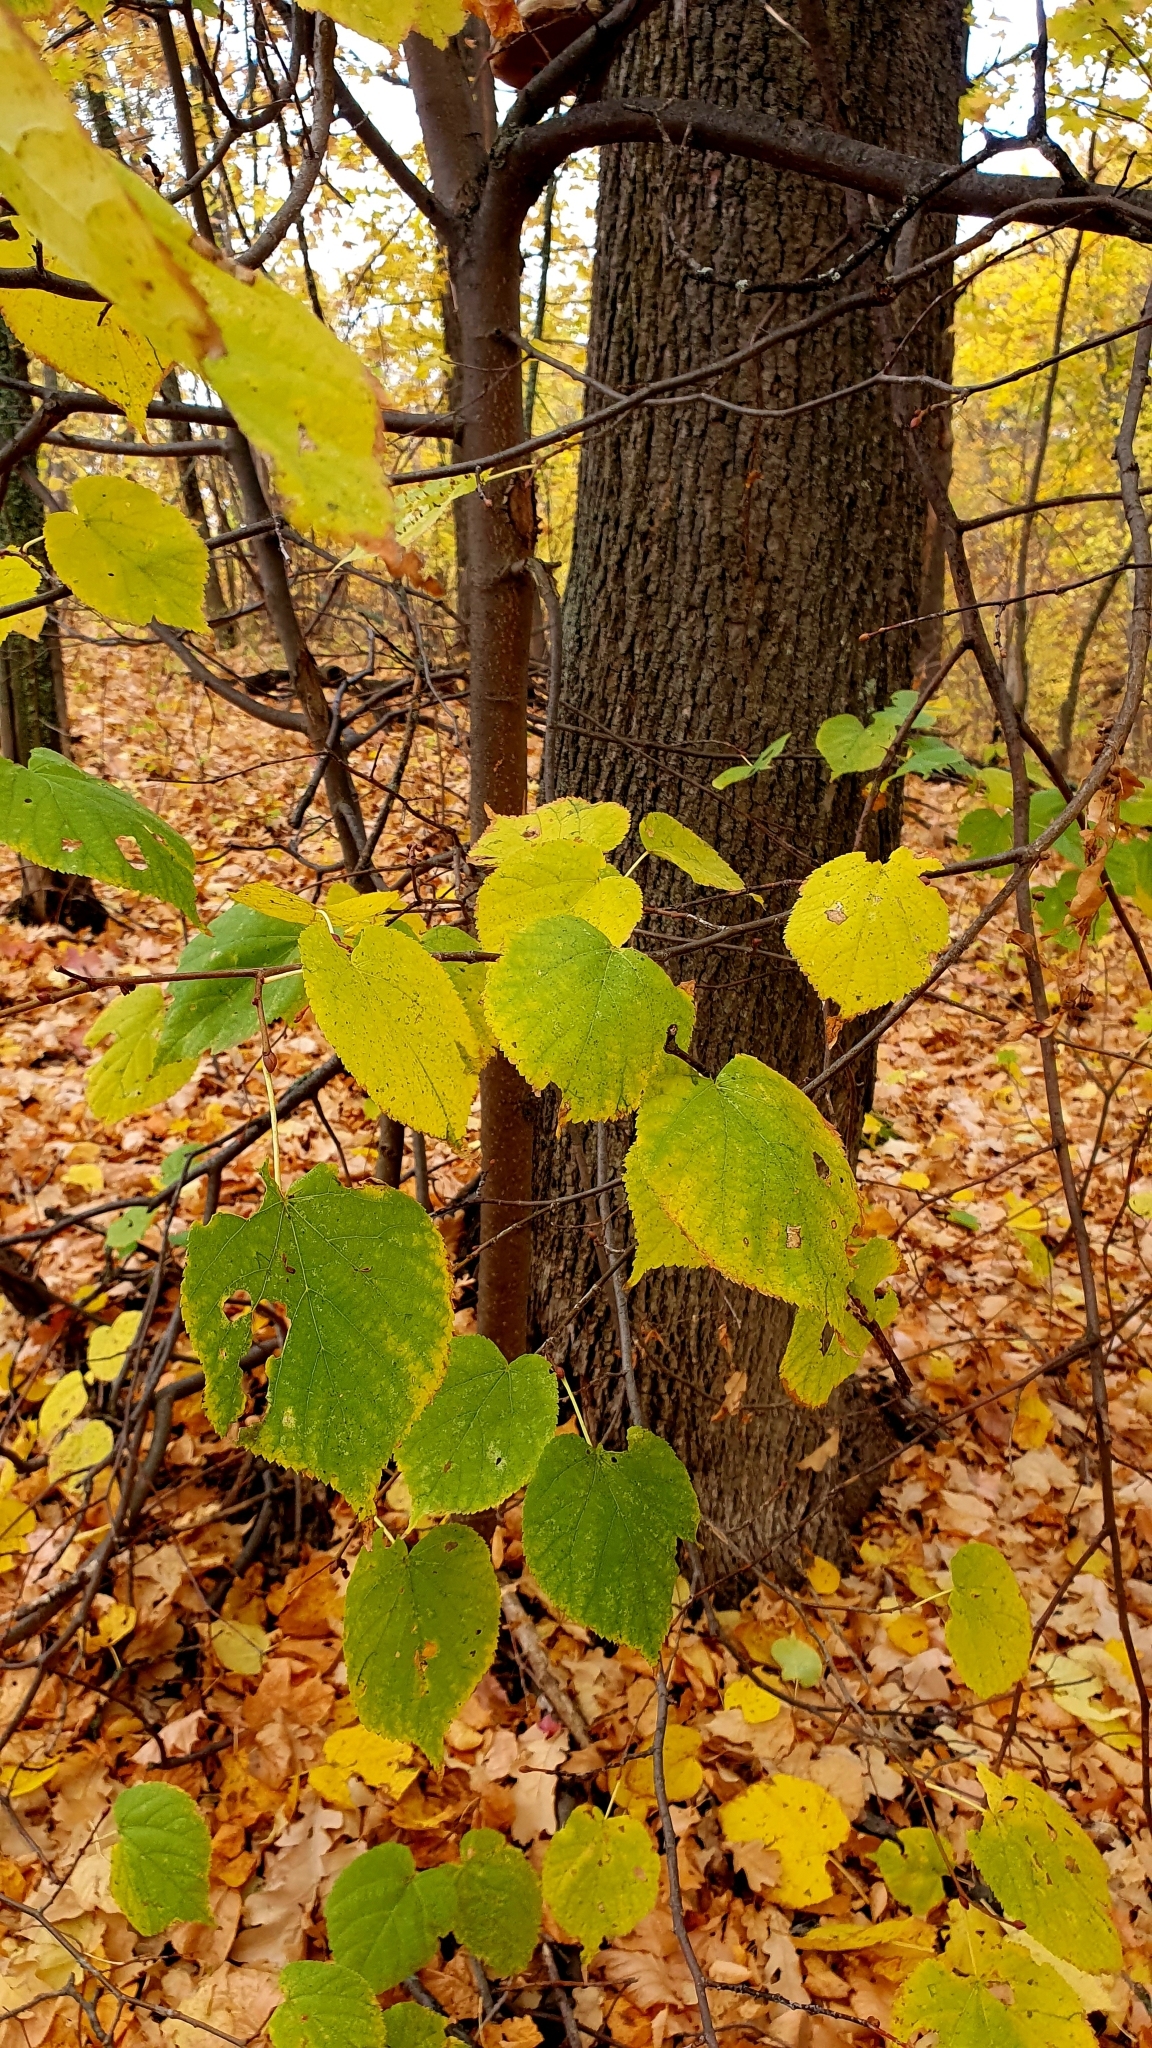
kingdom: Plantae
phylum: Tracheophyta
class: Magnoliopsida
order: Malvales
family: Malvaceae
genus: Tilia
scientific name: Tilia cordata
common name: Small-leaved lime
